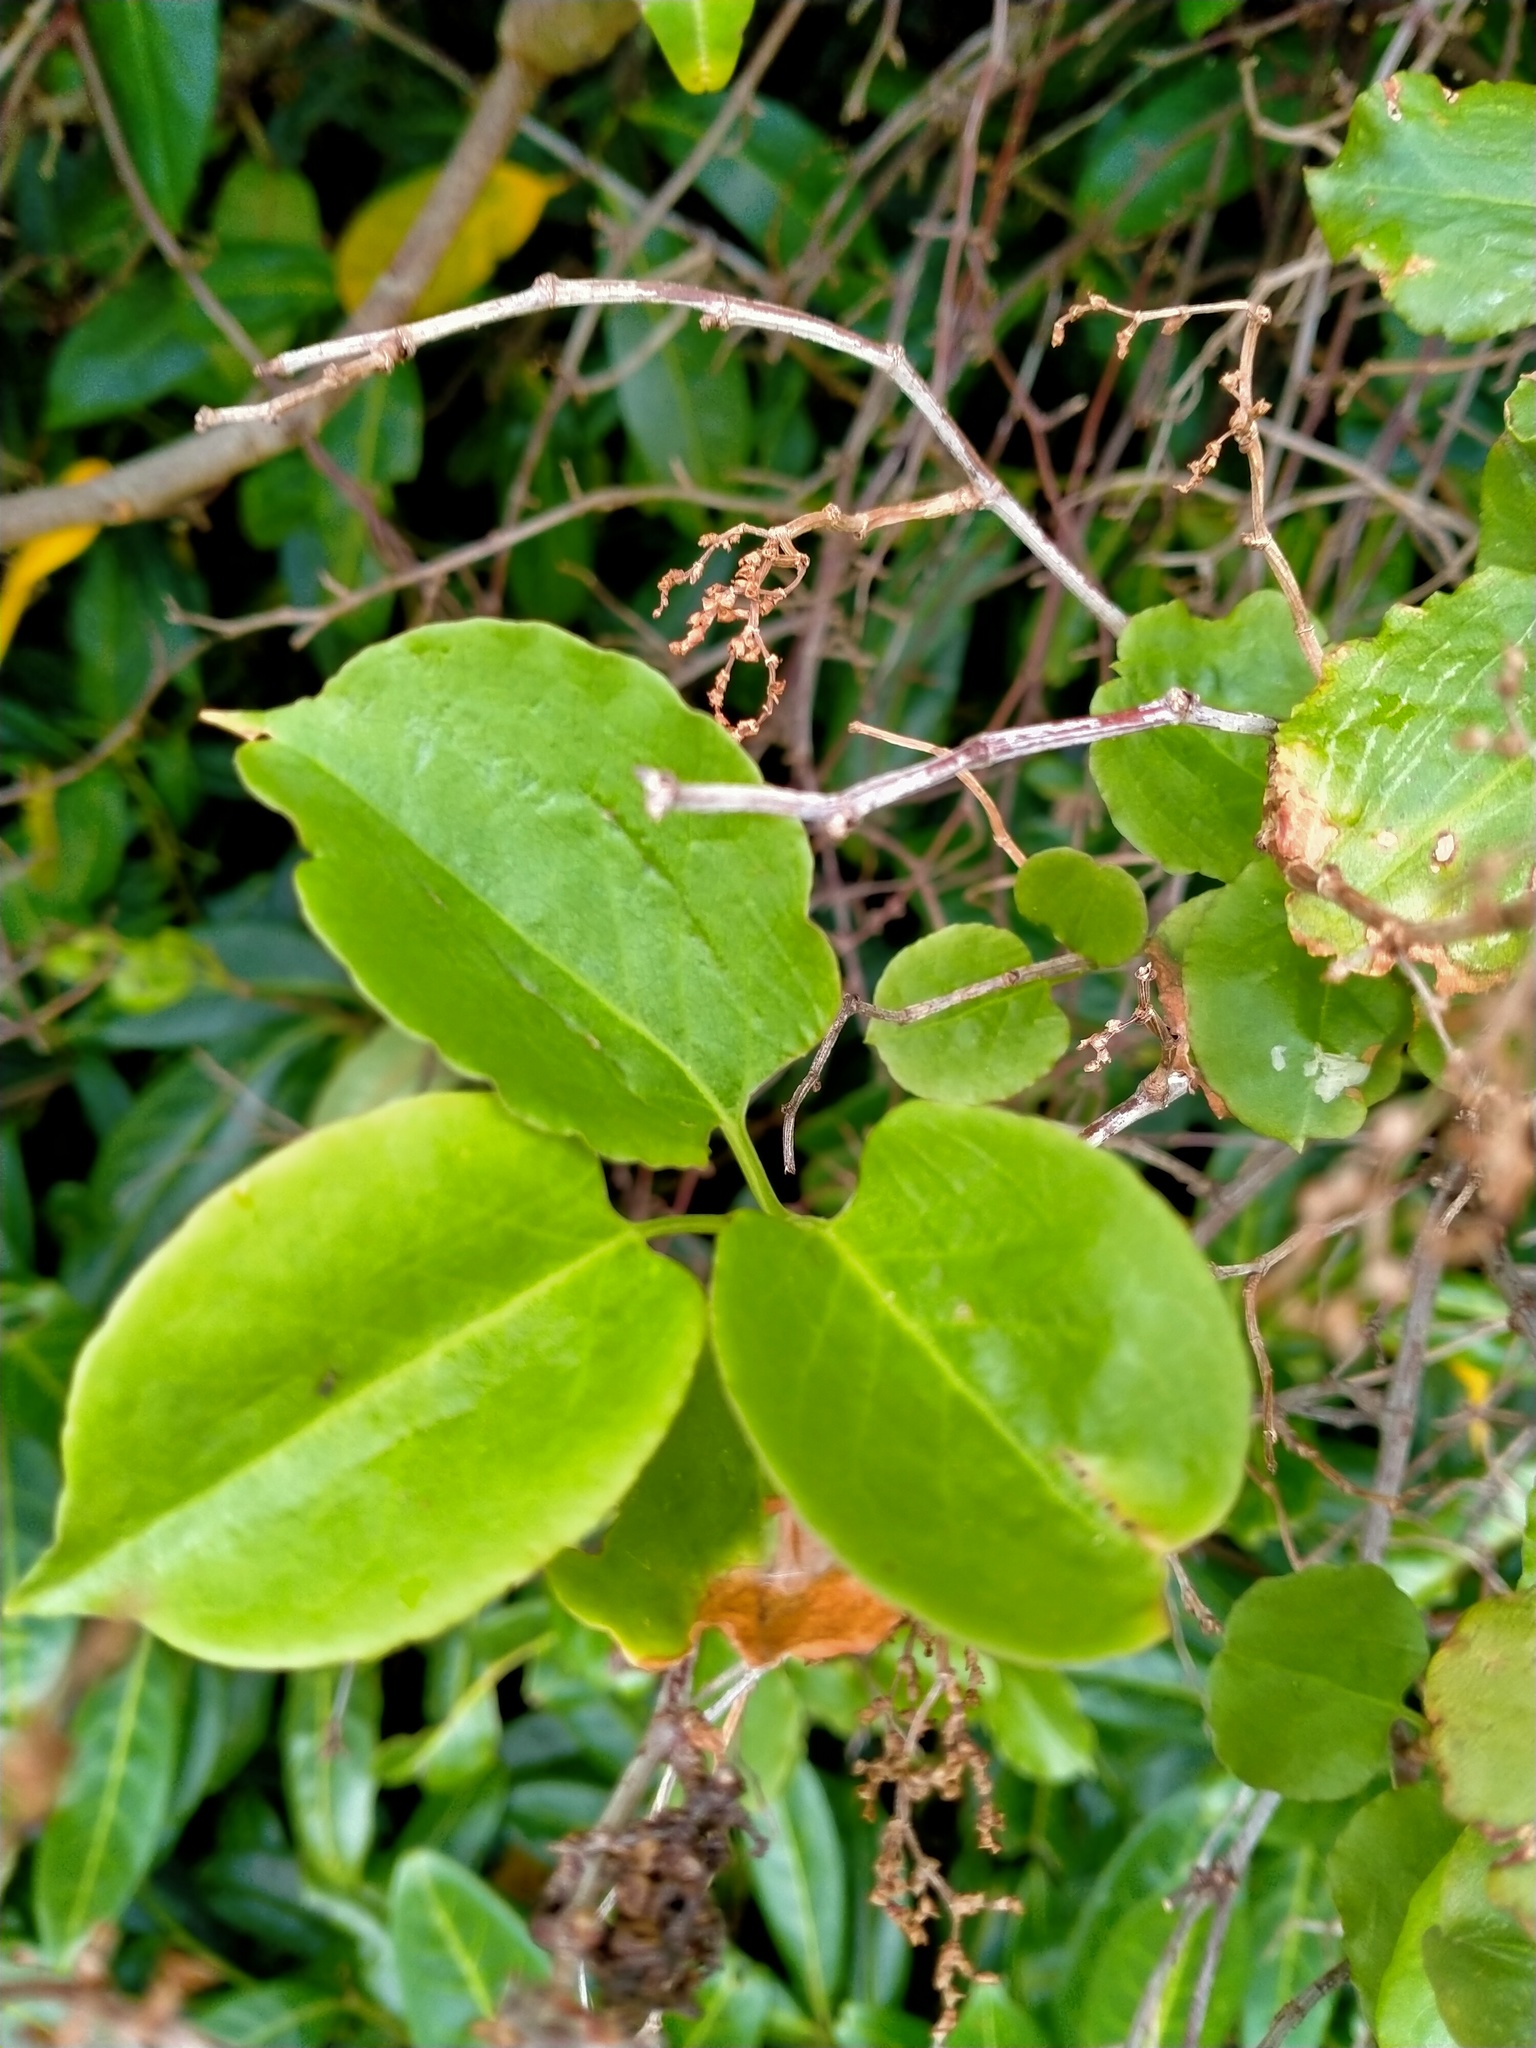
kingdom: Plantae
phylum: Tracheophyta
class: Magnoliopsida
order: Caryophyllales
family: Polygonaceae
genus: Muehlenbeckia
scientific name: Muehlenbeckia australis
